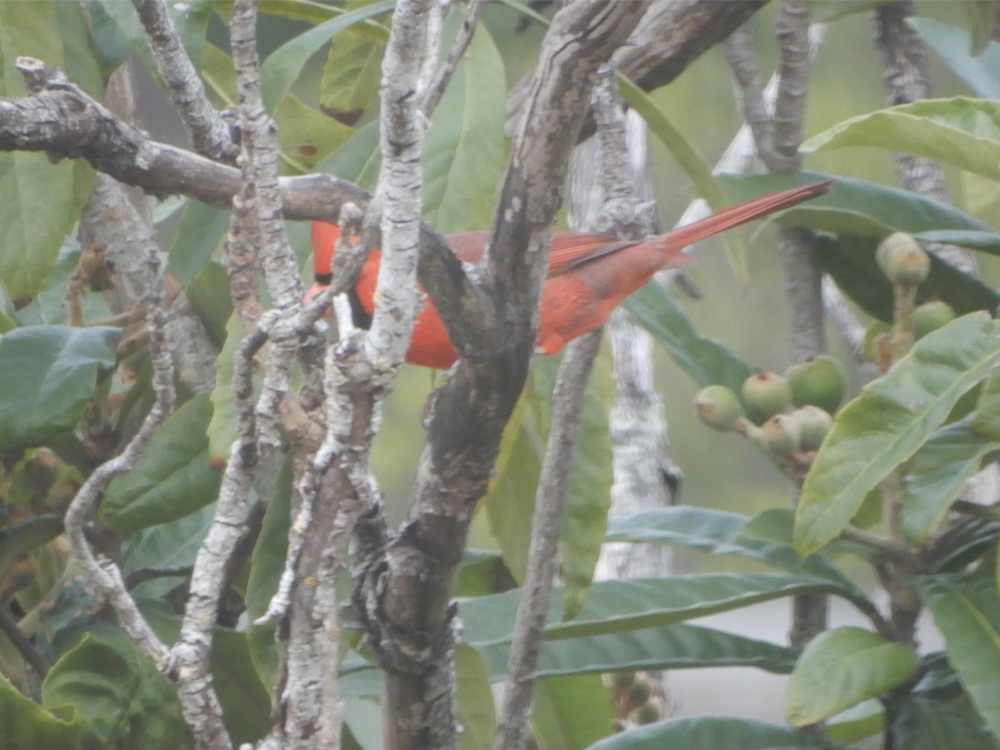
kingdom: Animalia
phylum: Chordata
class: Aves
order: Passeriformes
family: Cardinalidae
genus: Cardinalis
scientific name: Cardinalis cardinalis
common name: Northern cardinal
